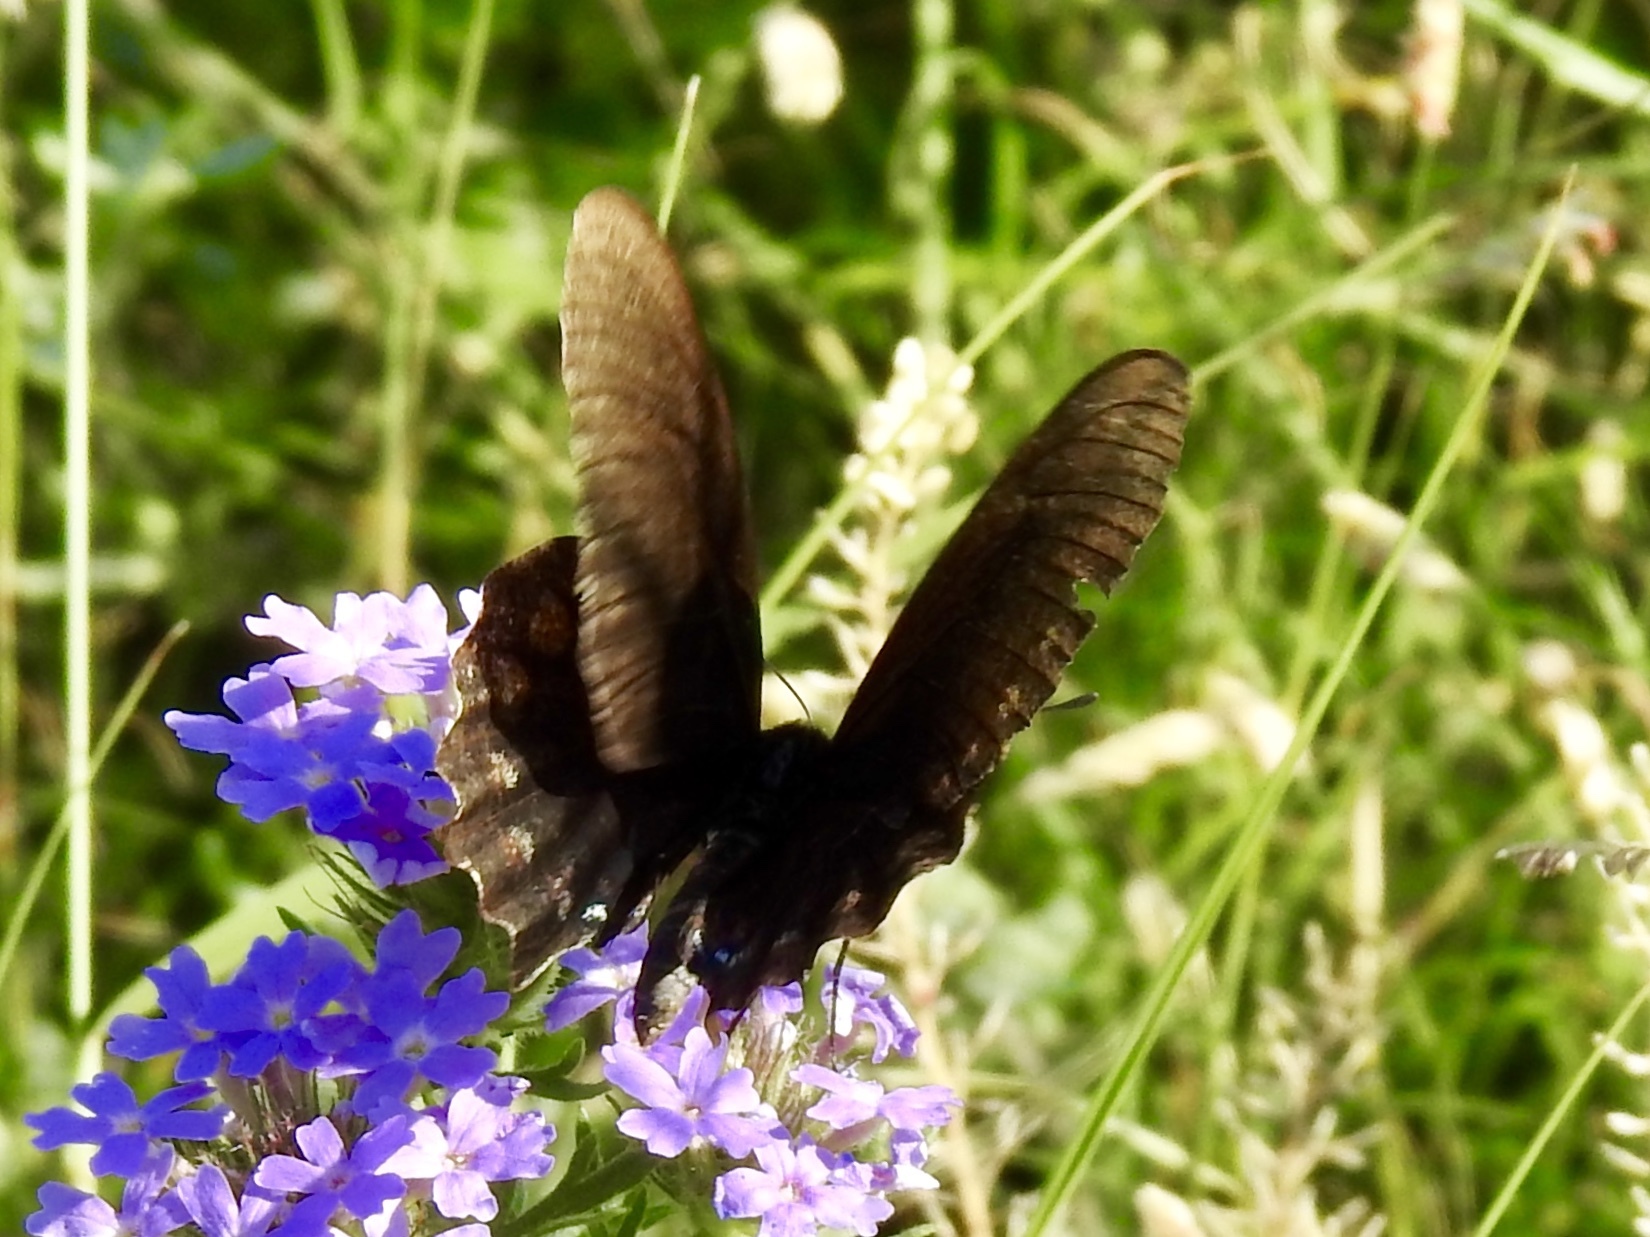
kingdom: Animalia
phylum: Arthropoda
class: Insecta
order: Lepidoptera
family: Papilionidae
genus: Battus
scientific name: Battus philenor
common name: Pipevine swallowtail
